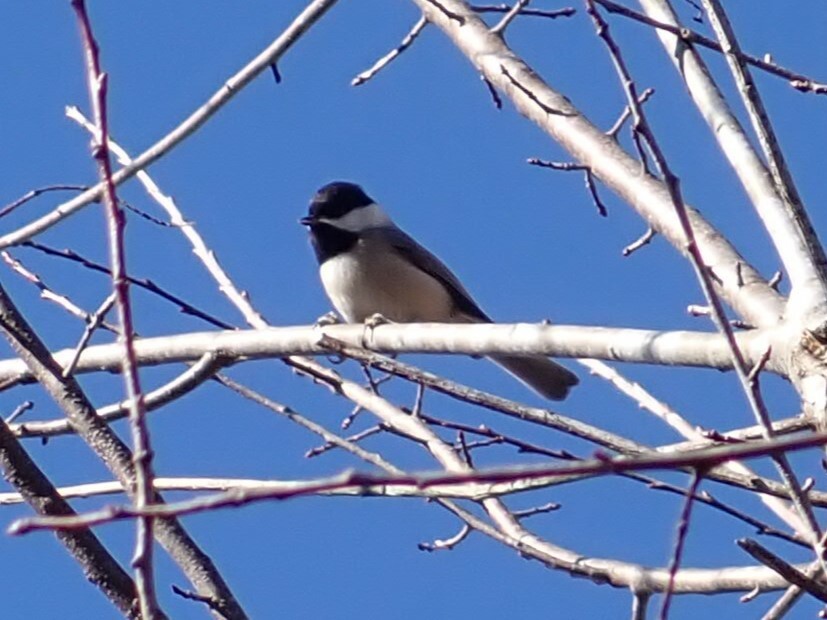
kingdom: Animalia
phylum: Chordata
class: Aves
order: Passeriformes
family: Paridae
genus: Poecile
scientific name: Poecile carolinensis
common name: Carolina chickadee
